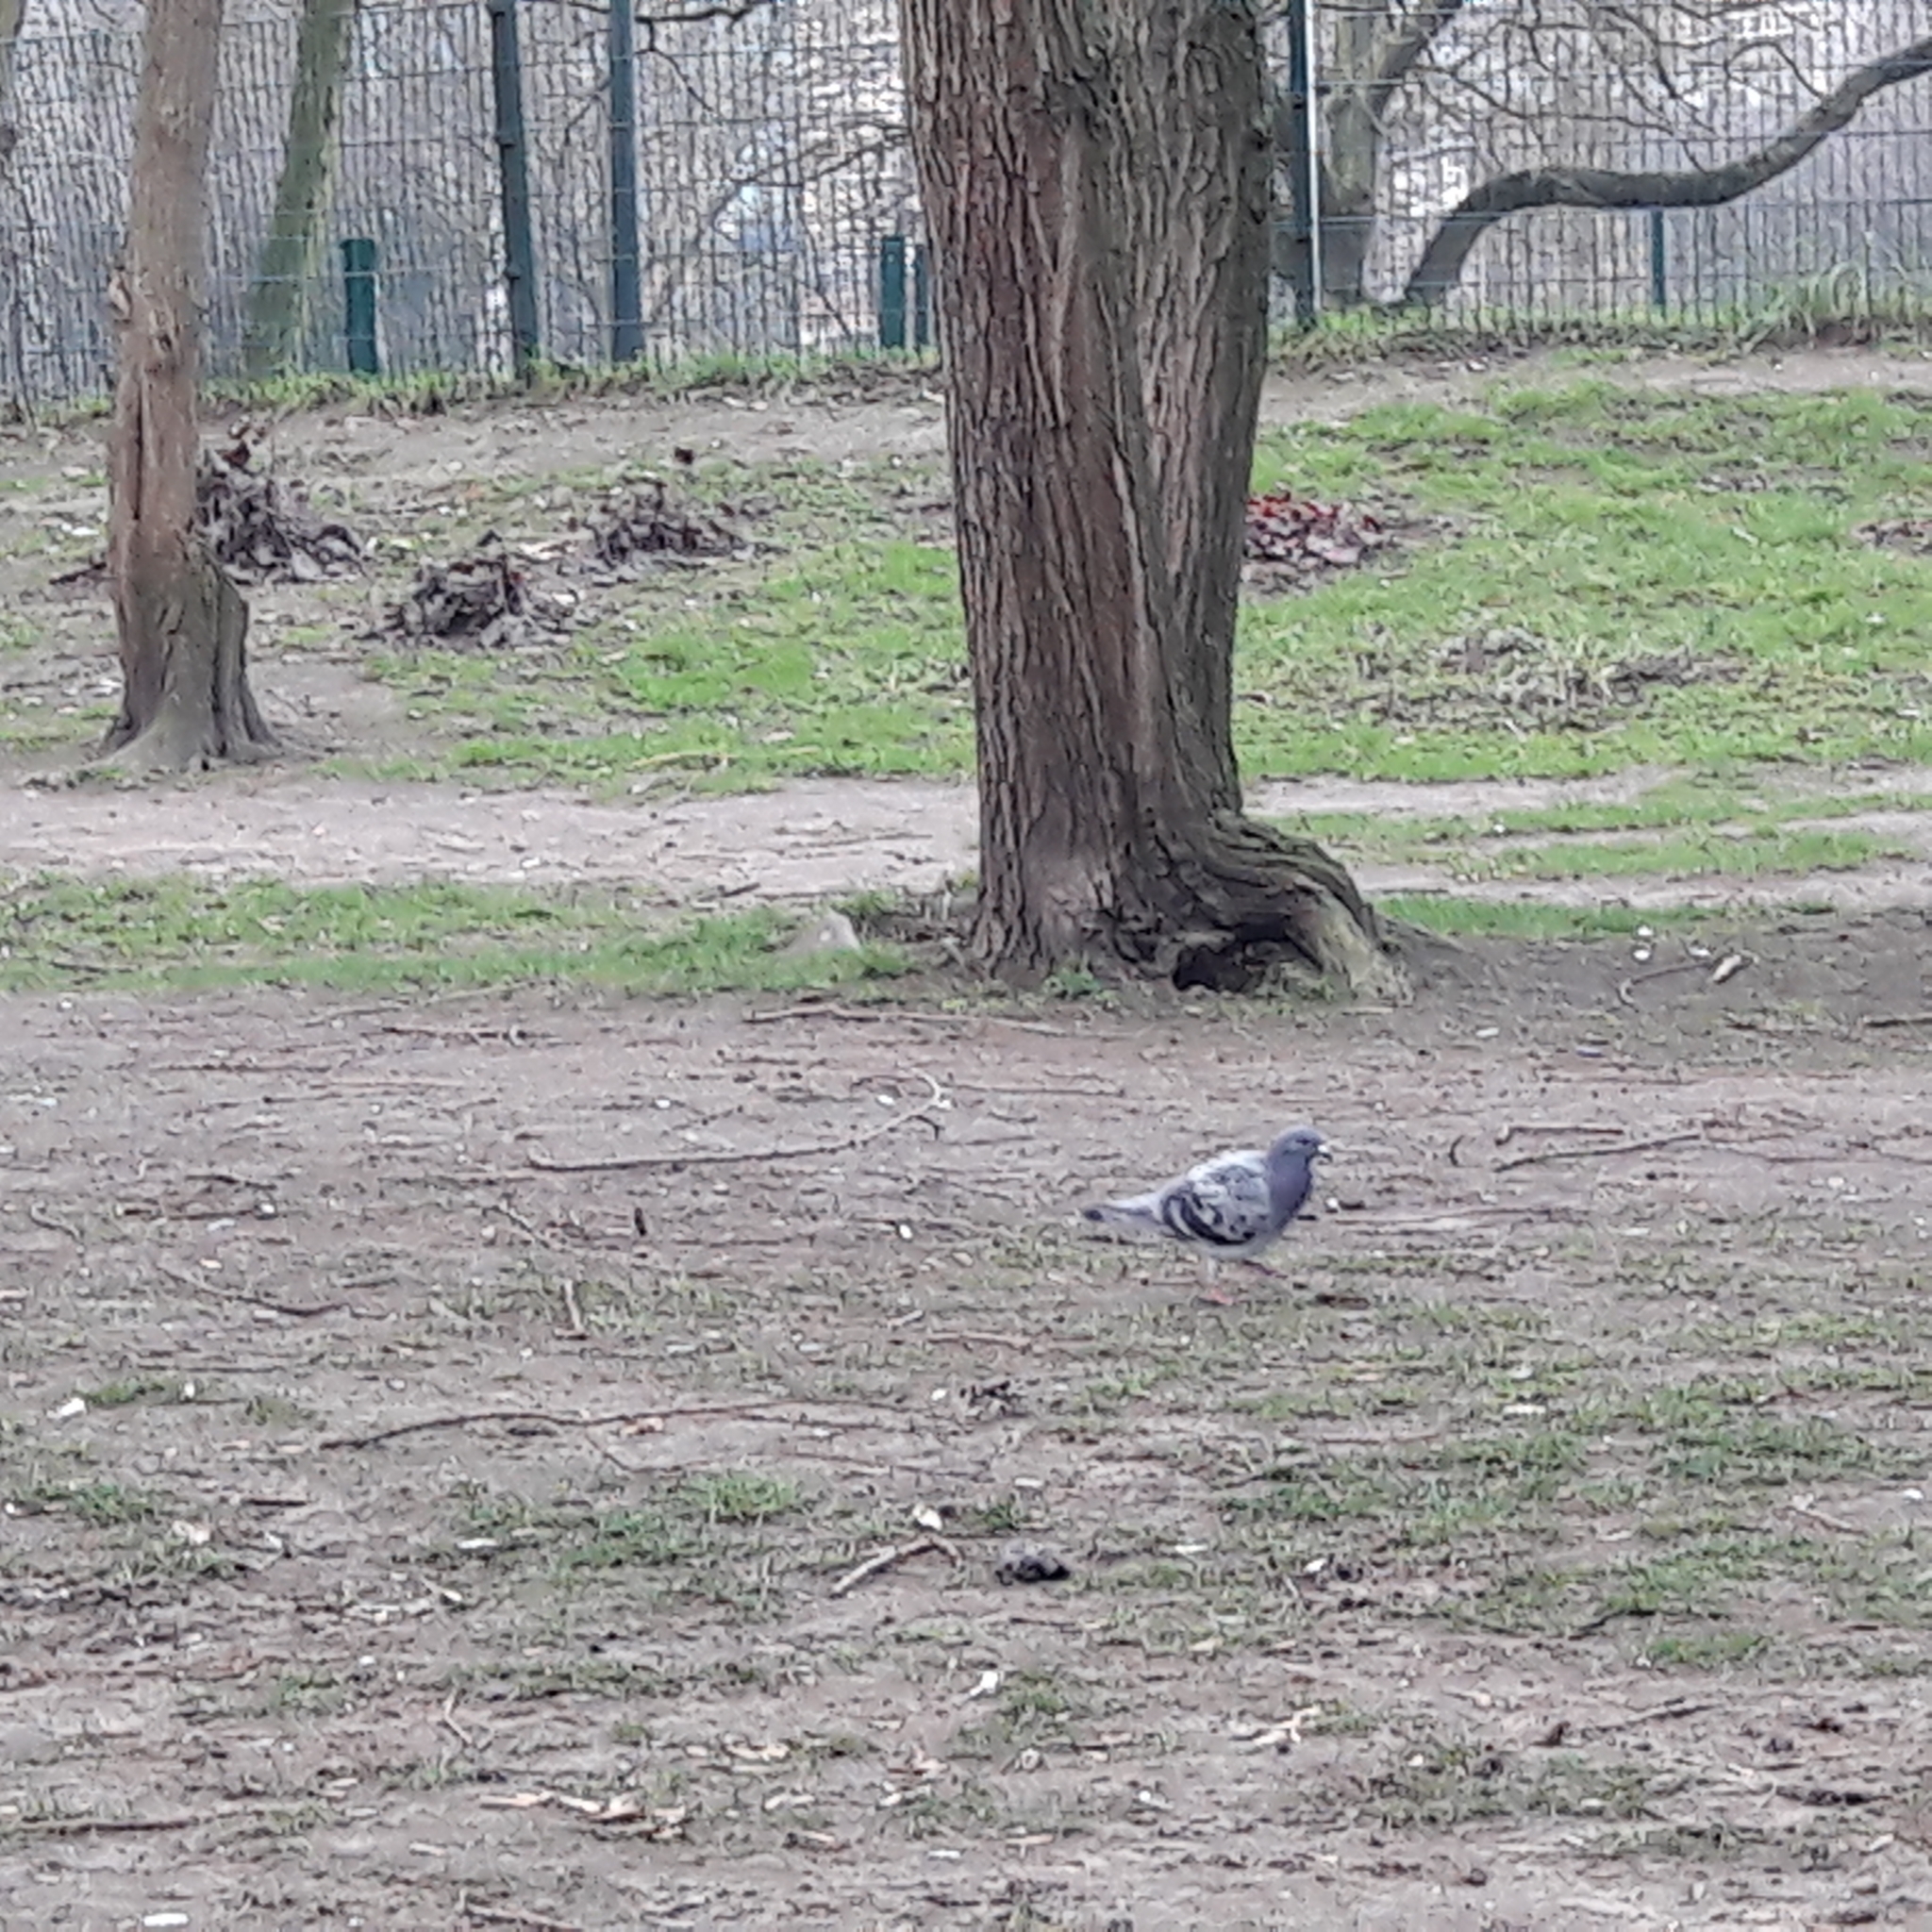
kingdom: Animalia
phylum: Chordata
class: Aves
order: Columbiformes
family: Columbidae
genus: Columba
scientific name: Columba livia
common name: Rock pigeon
